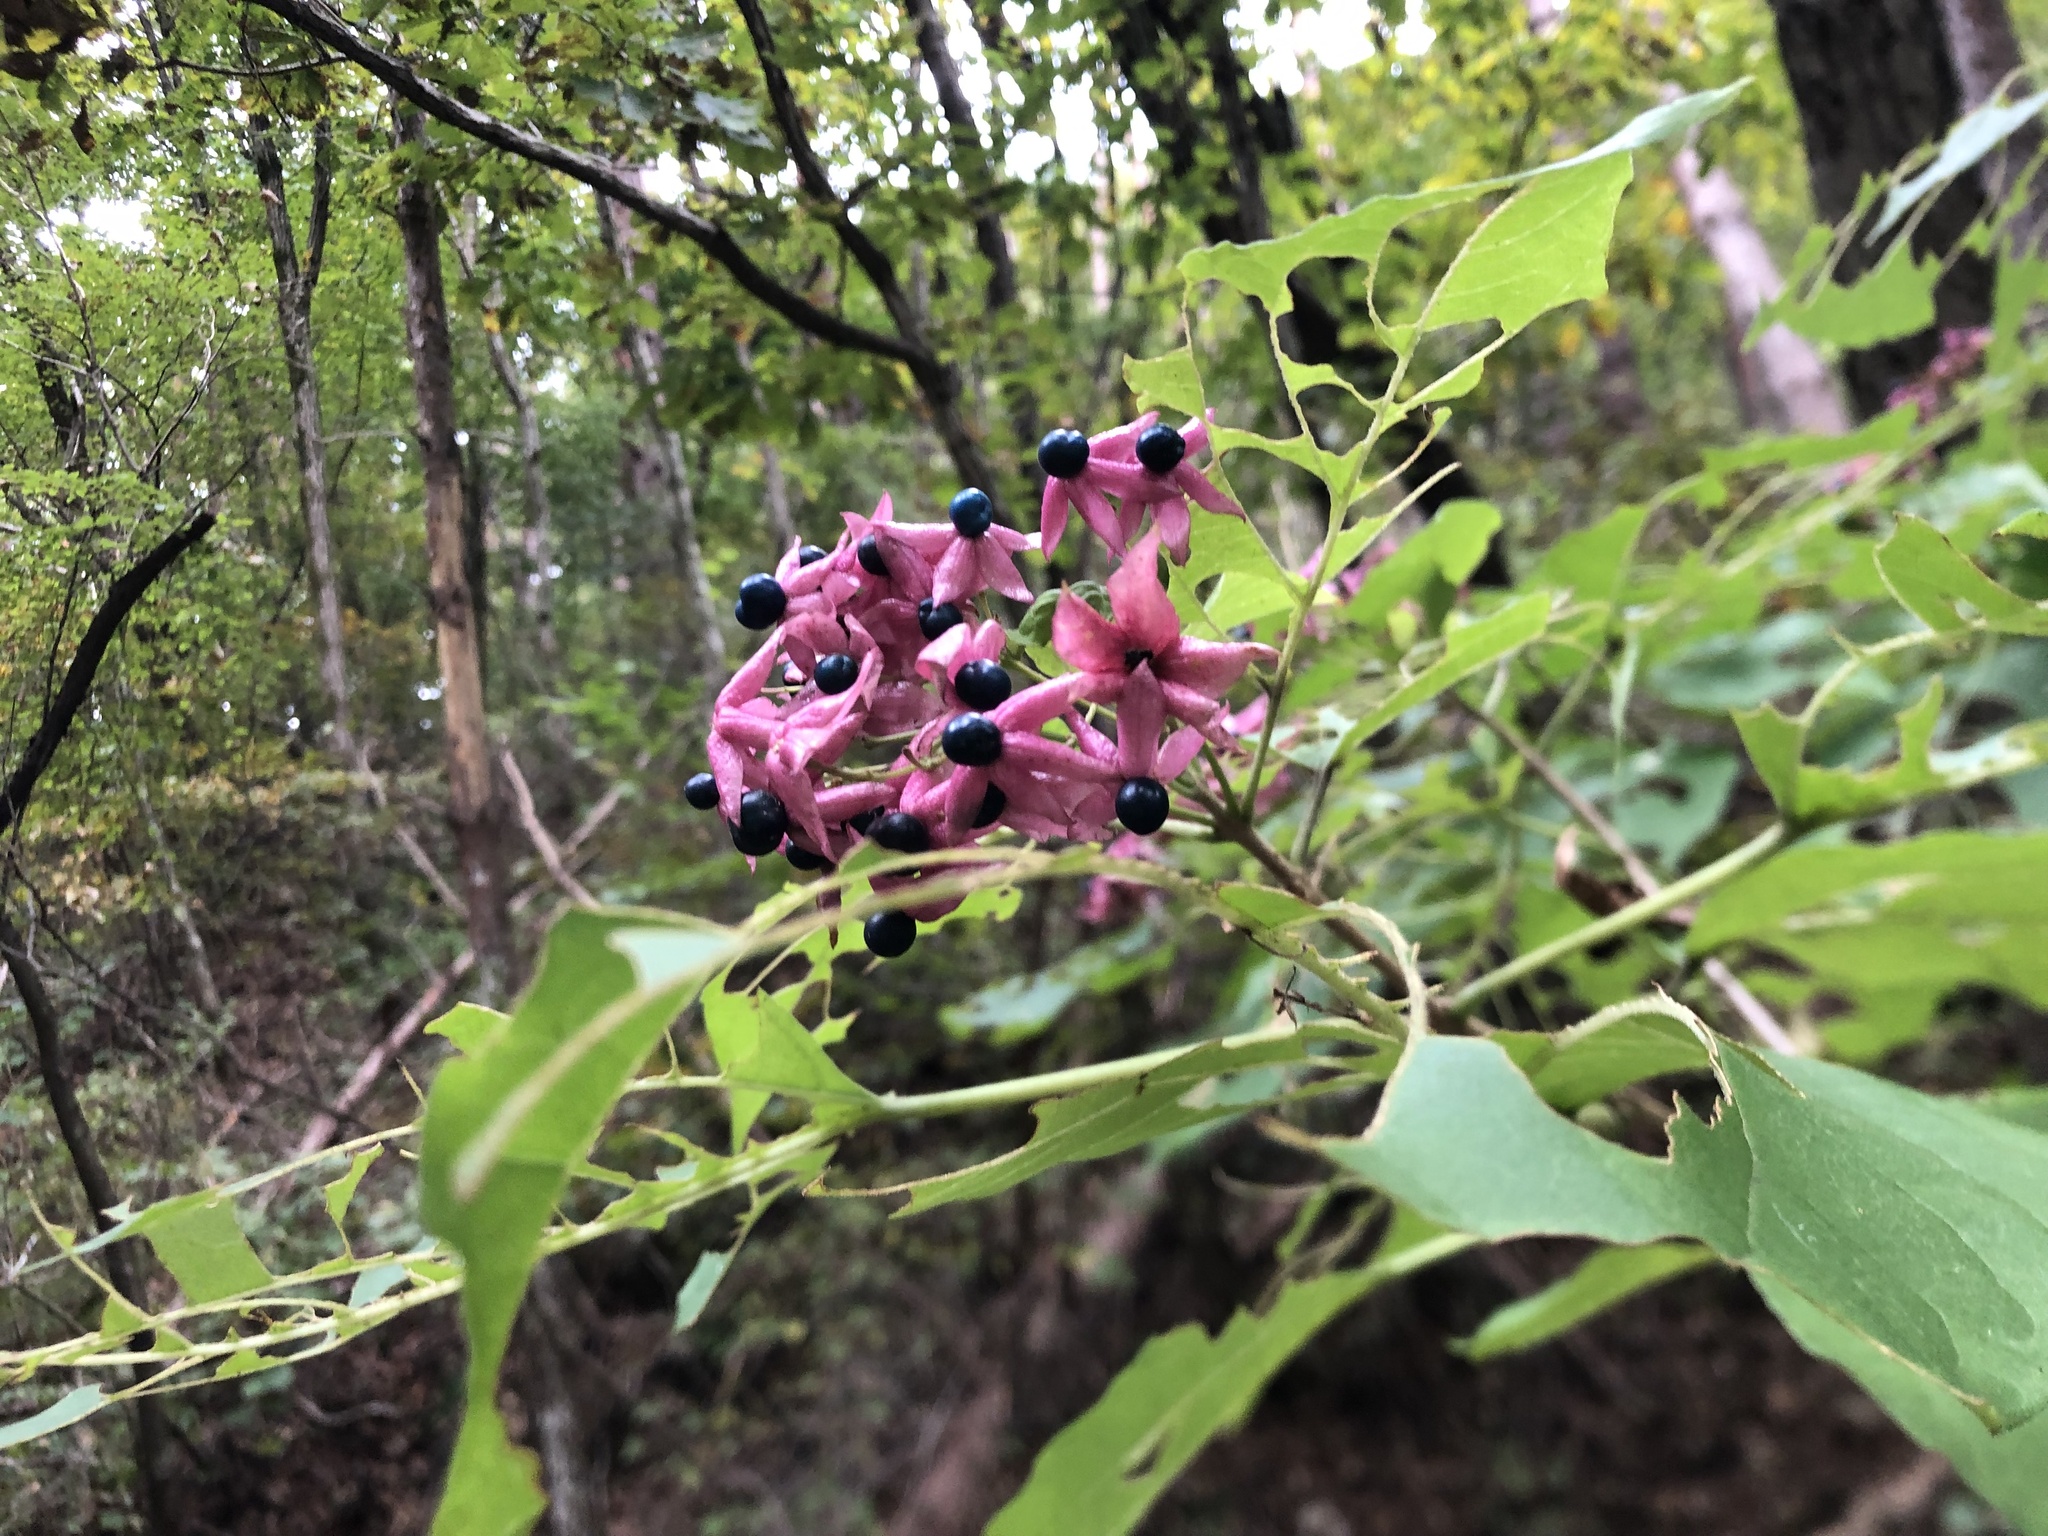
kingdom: Plantae
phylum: Tracheophyta
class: Magnoliopsida
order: Lamiales
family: Lamiaceae
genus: Clerodendrum
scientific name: Clerodendrum trichotomum
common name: Harlequin glorybower
